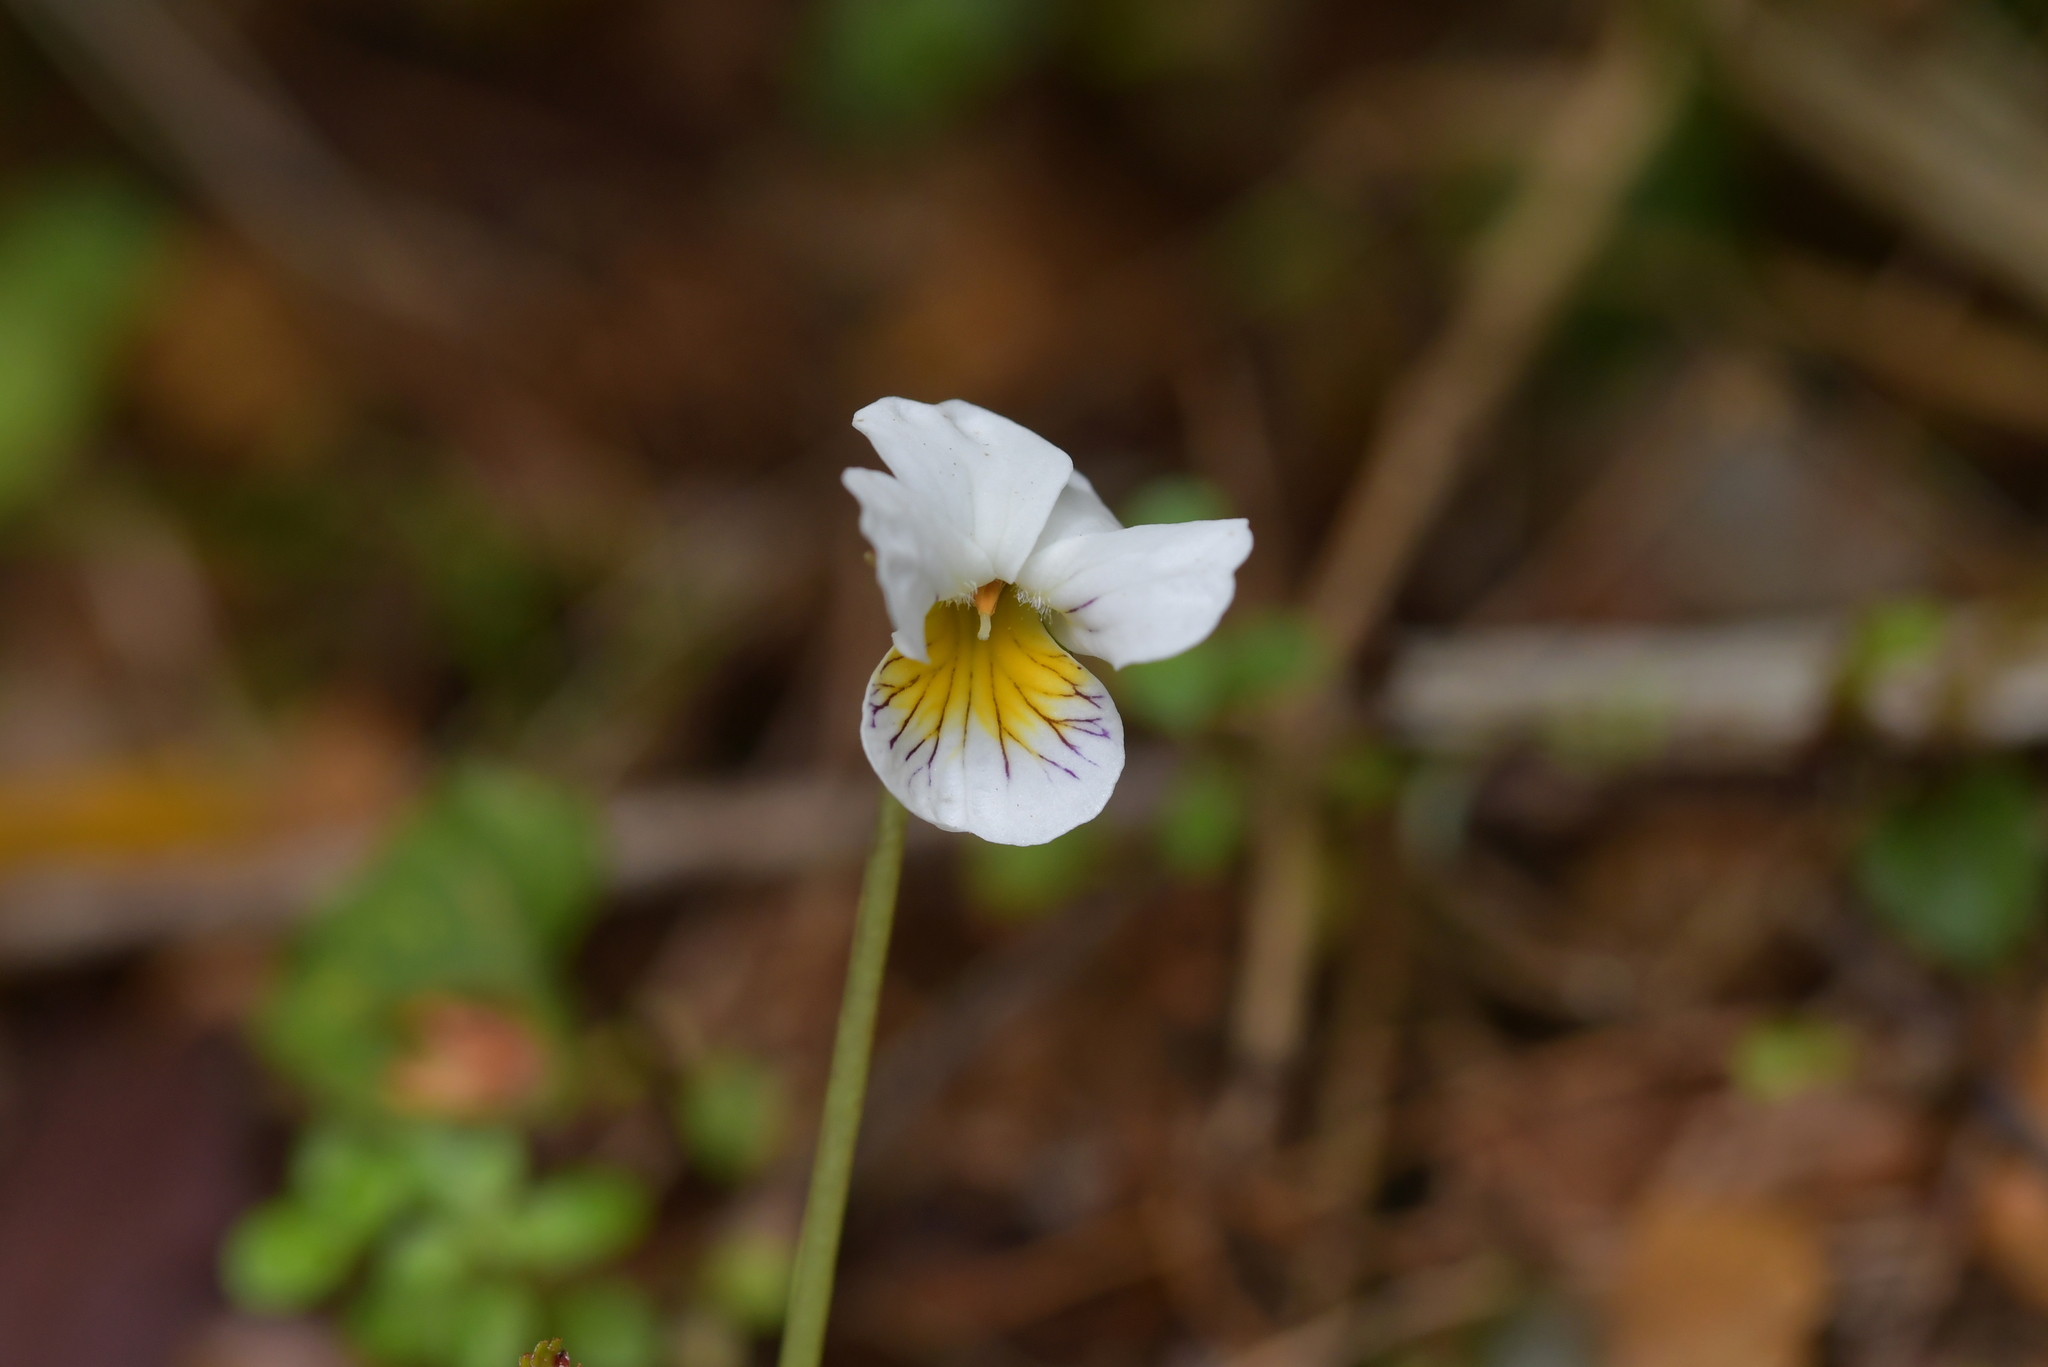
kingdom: Plantae
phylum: Tracheophyta
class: Magnoliopsida
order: Malpighiales
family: Violaceae
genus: Viola
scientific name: Viola filicaulis
